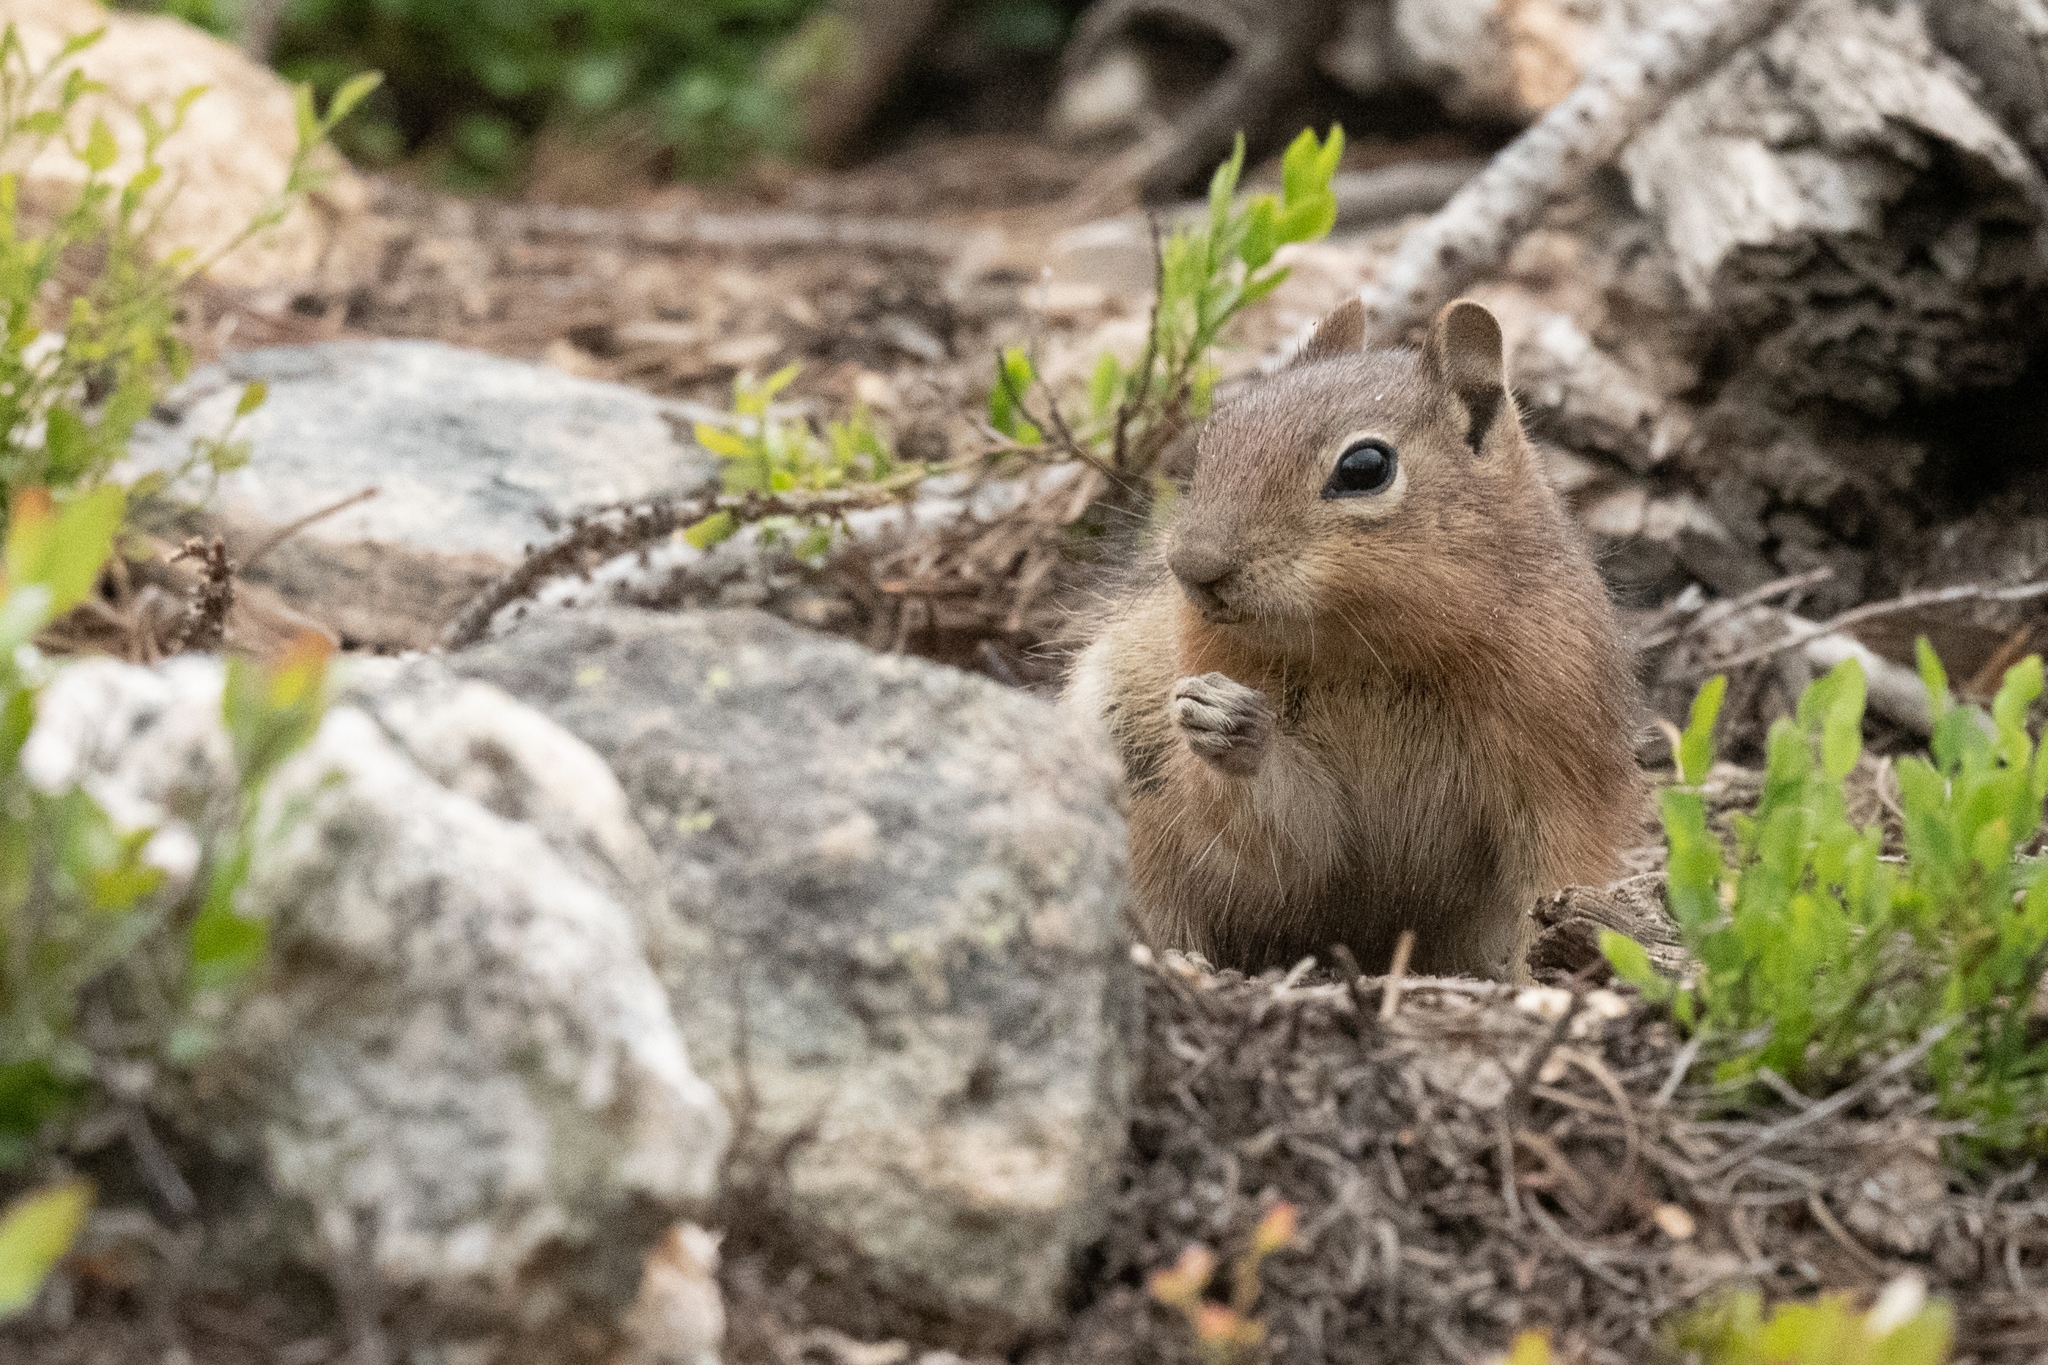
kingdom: Animalia
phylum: Chordata
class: Mammalia
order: Rodentia
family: Sciuridae
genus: Callospermophilus
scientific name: Callospermophilus lateralis
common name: Golden-mantled ground squirrel
